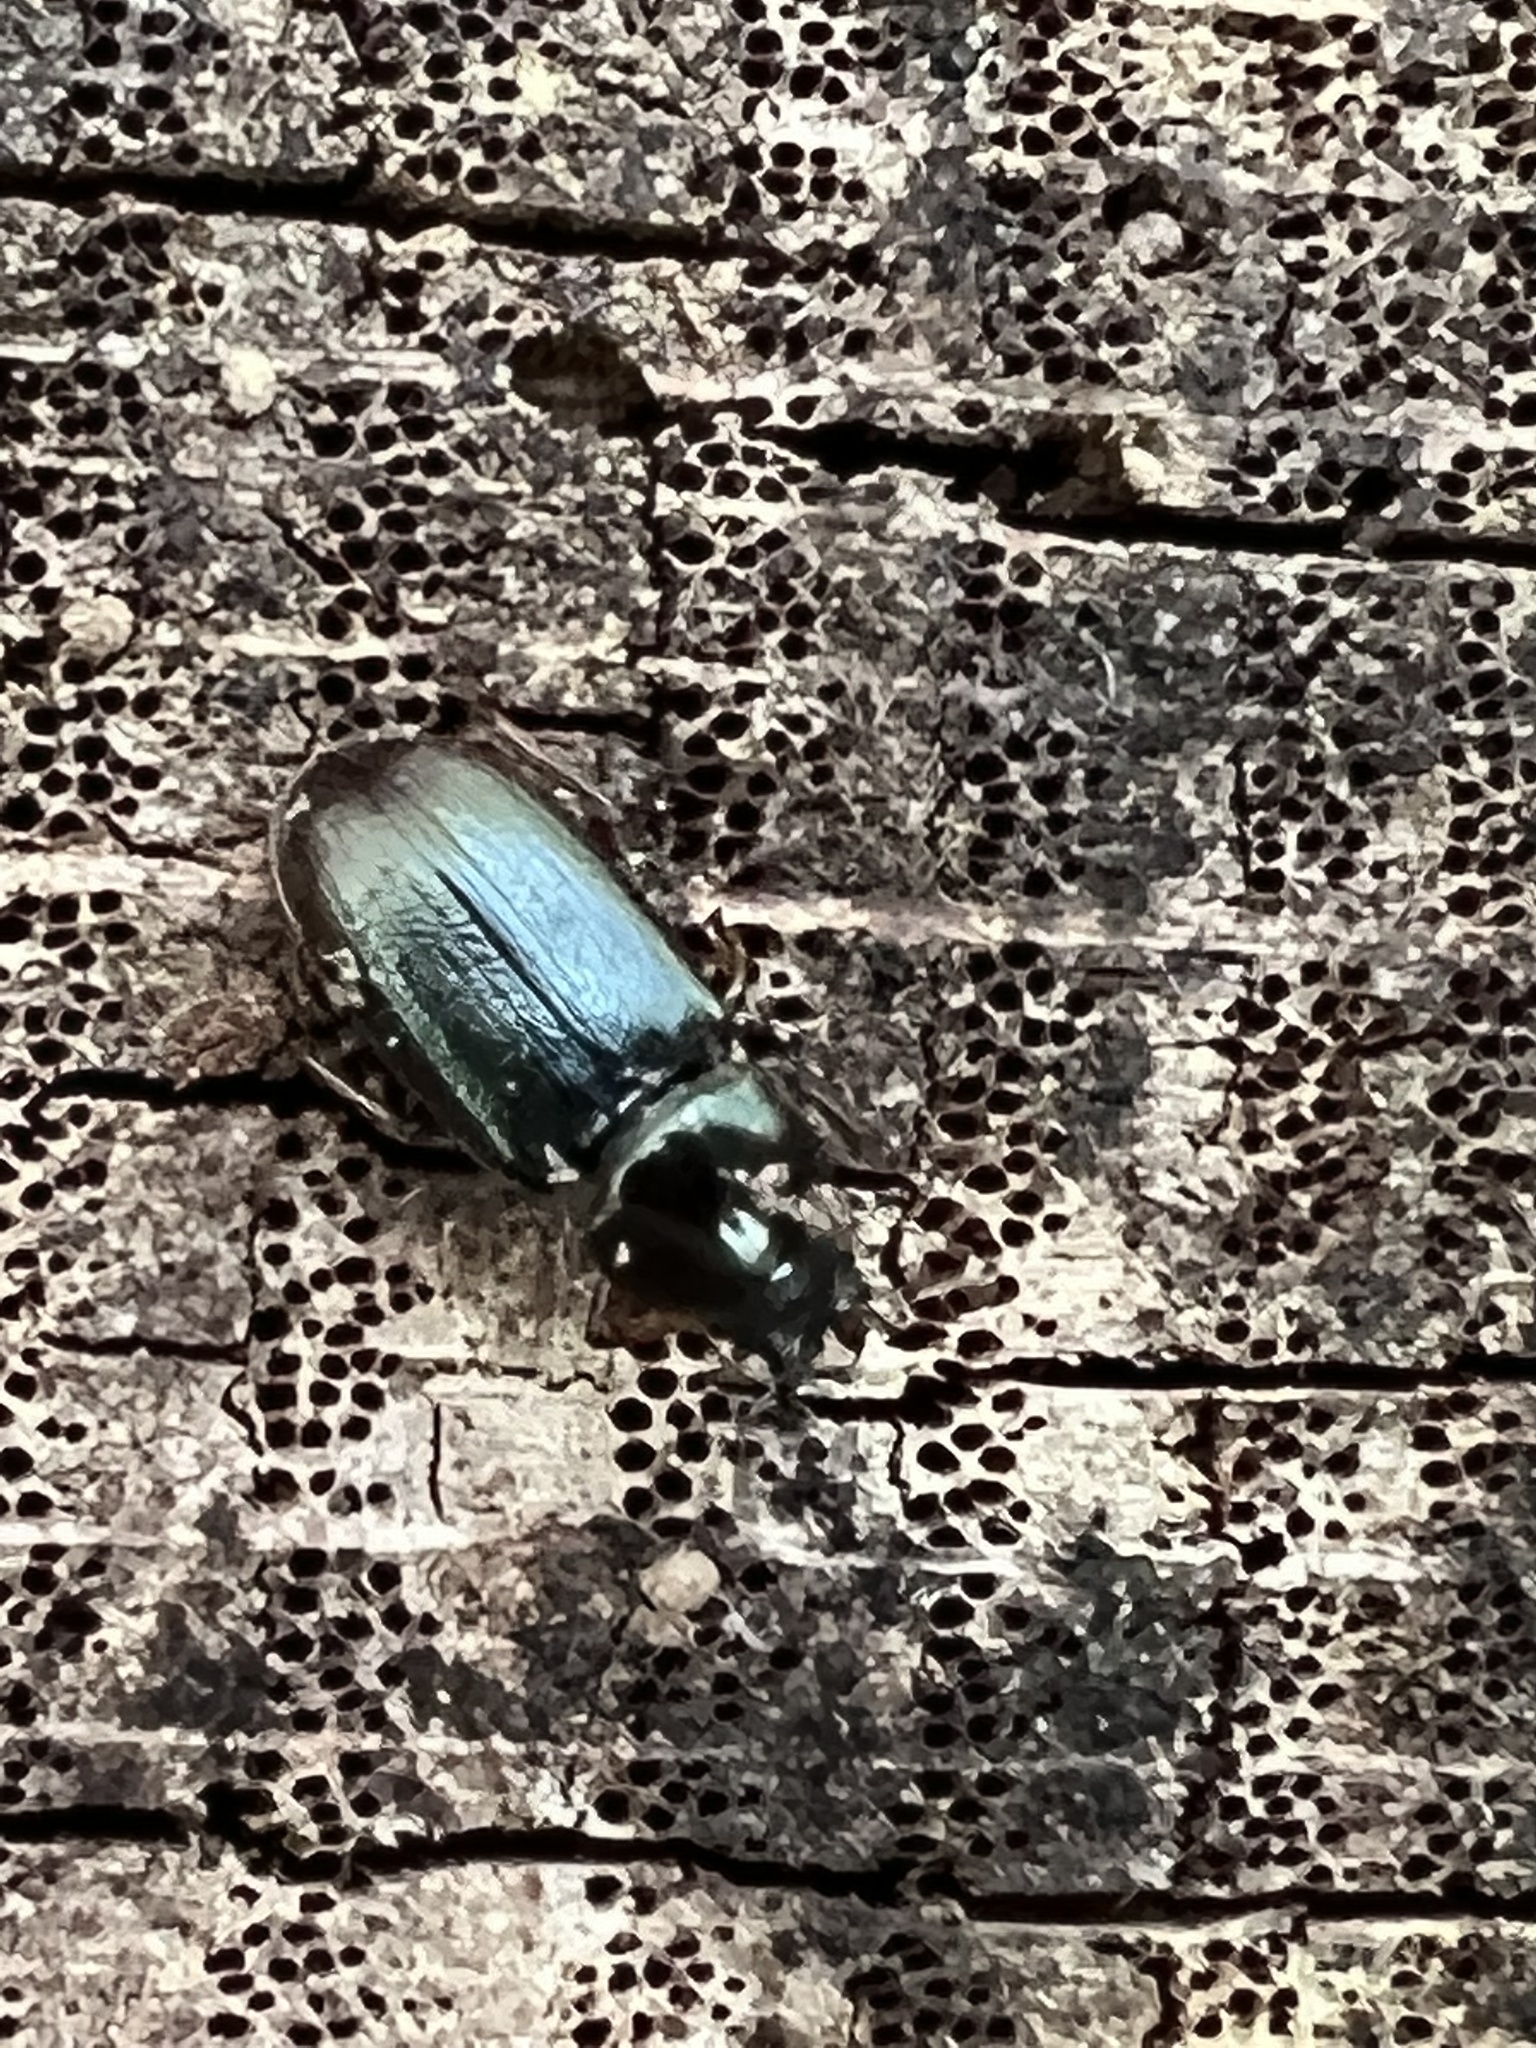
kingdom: Animalia
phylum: Arthropoda
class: Insecta
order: Coleoptera
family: Lucanidae
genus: Platycerus
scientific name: Platycerus quercus
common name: Oak stag beetle
